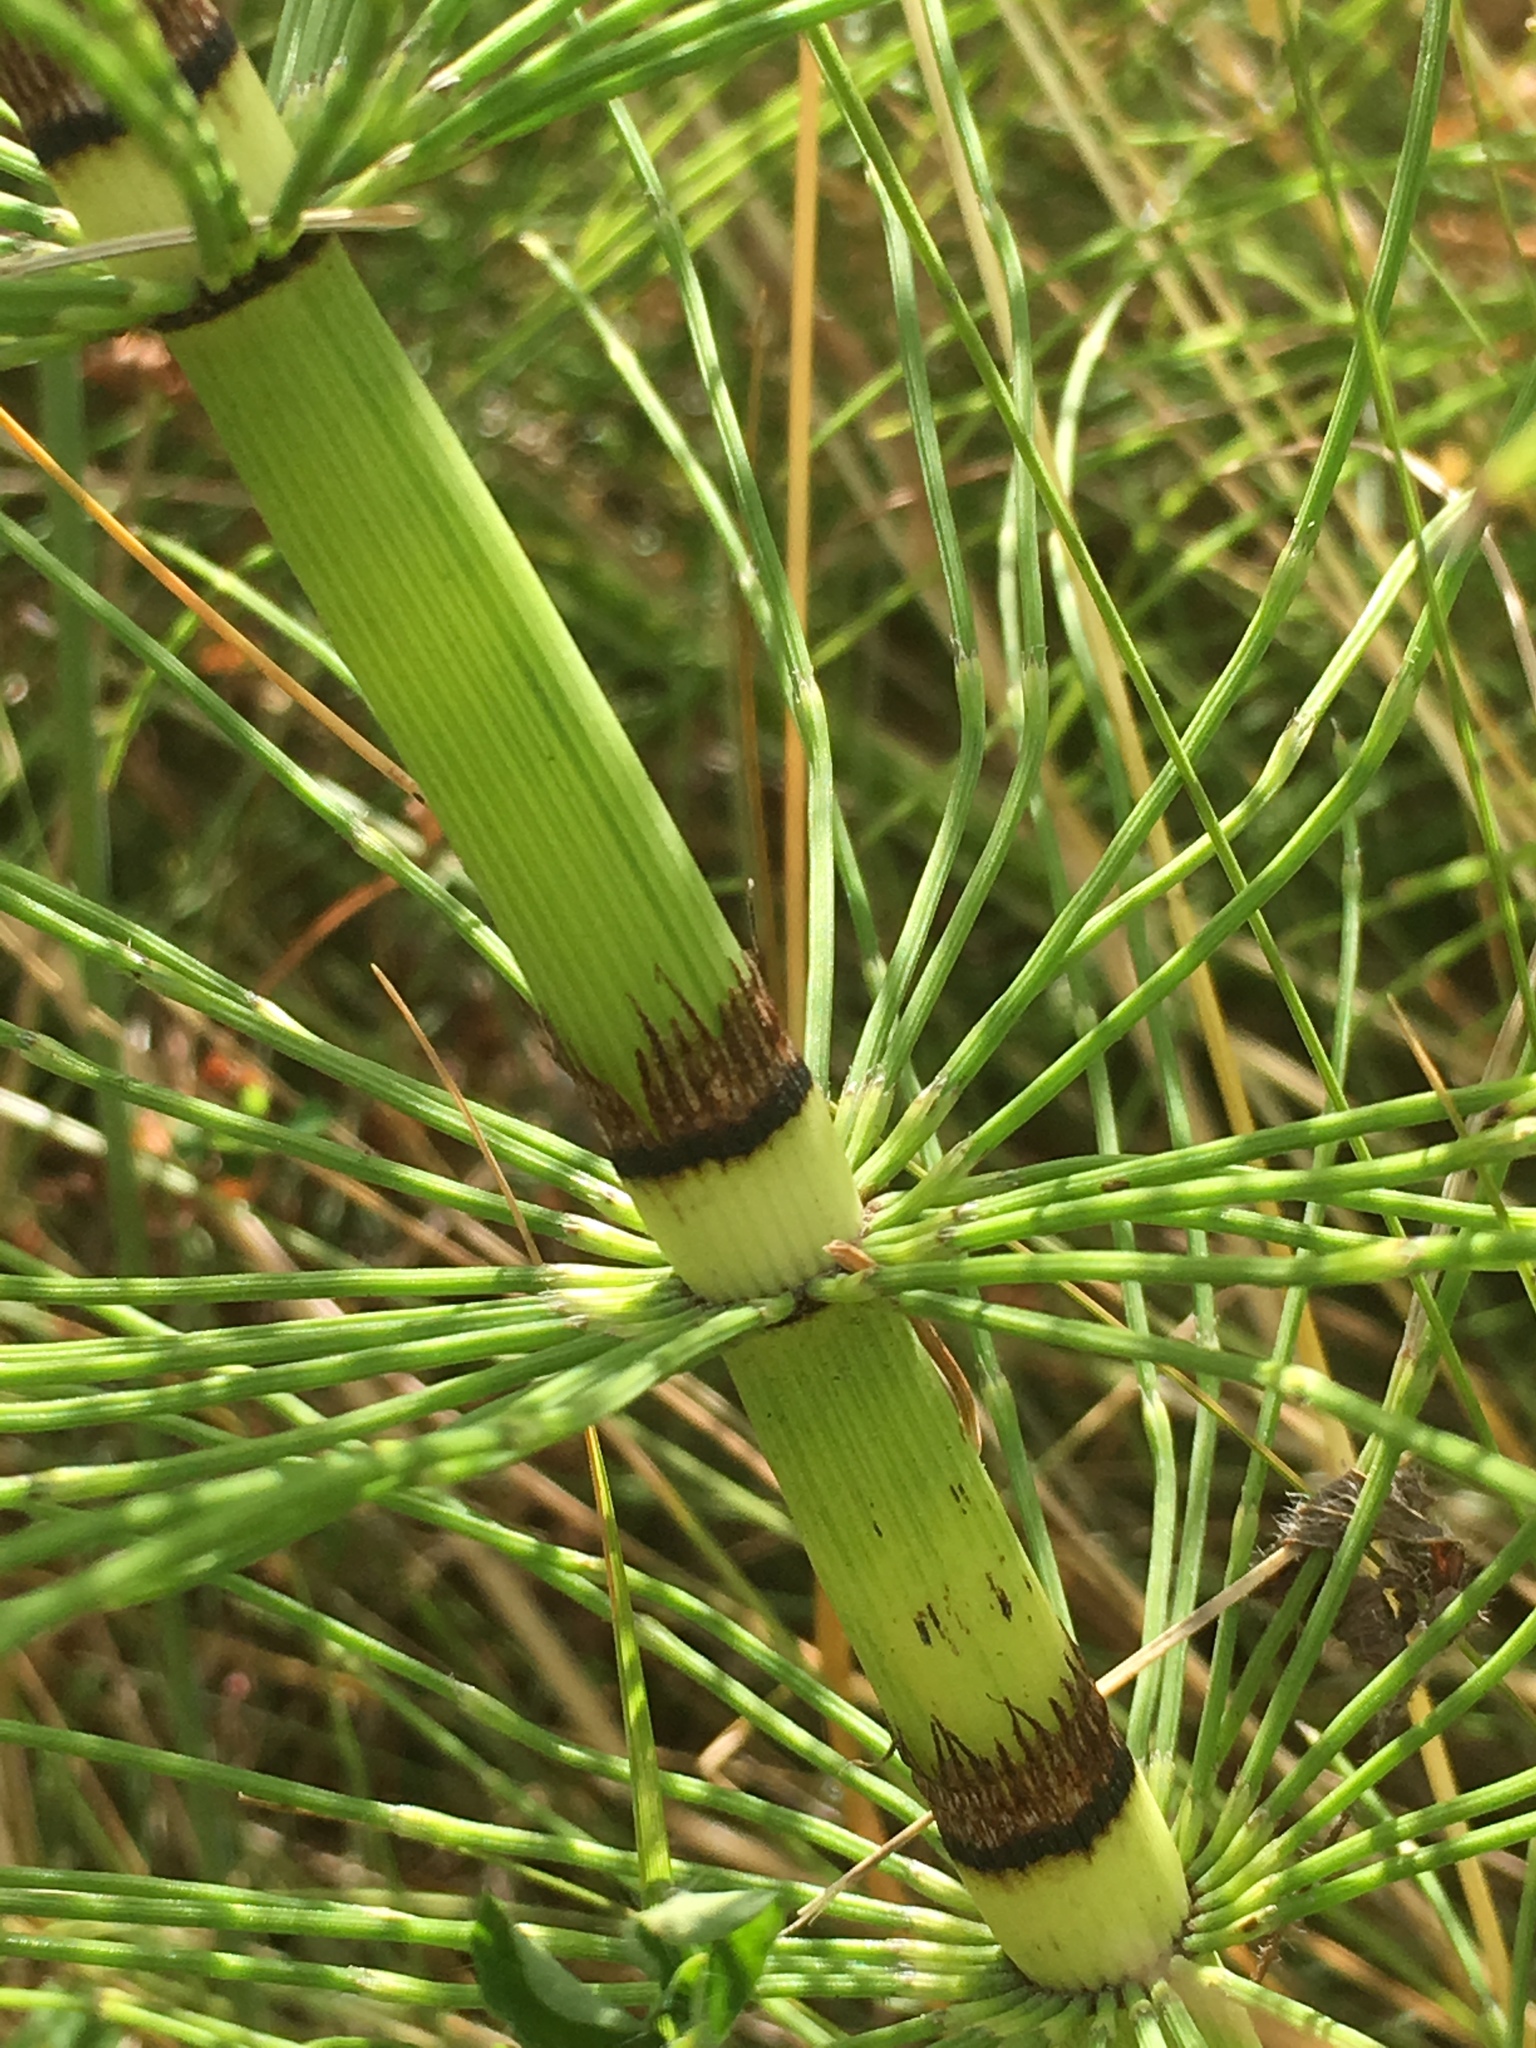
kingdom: Plantae
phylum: Tracheophyta
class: Polypodiopsida
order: Equisetales
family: Equisetaceae
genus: Equisetum
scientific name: Equisetum braunii
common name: Braun's horsetail
